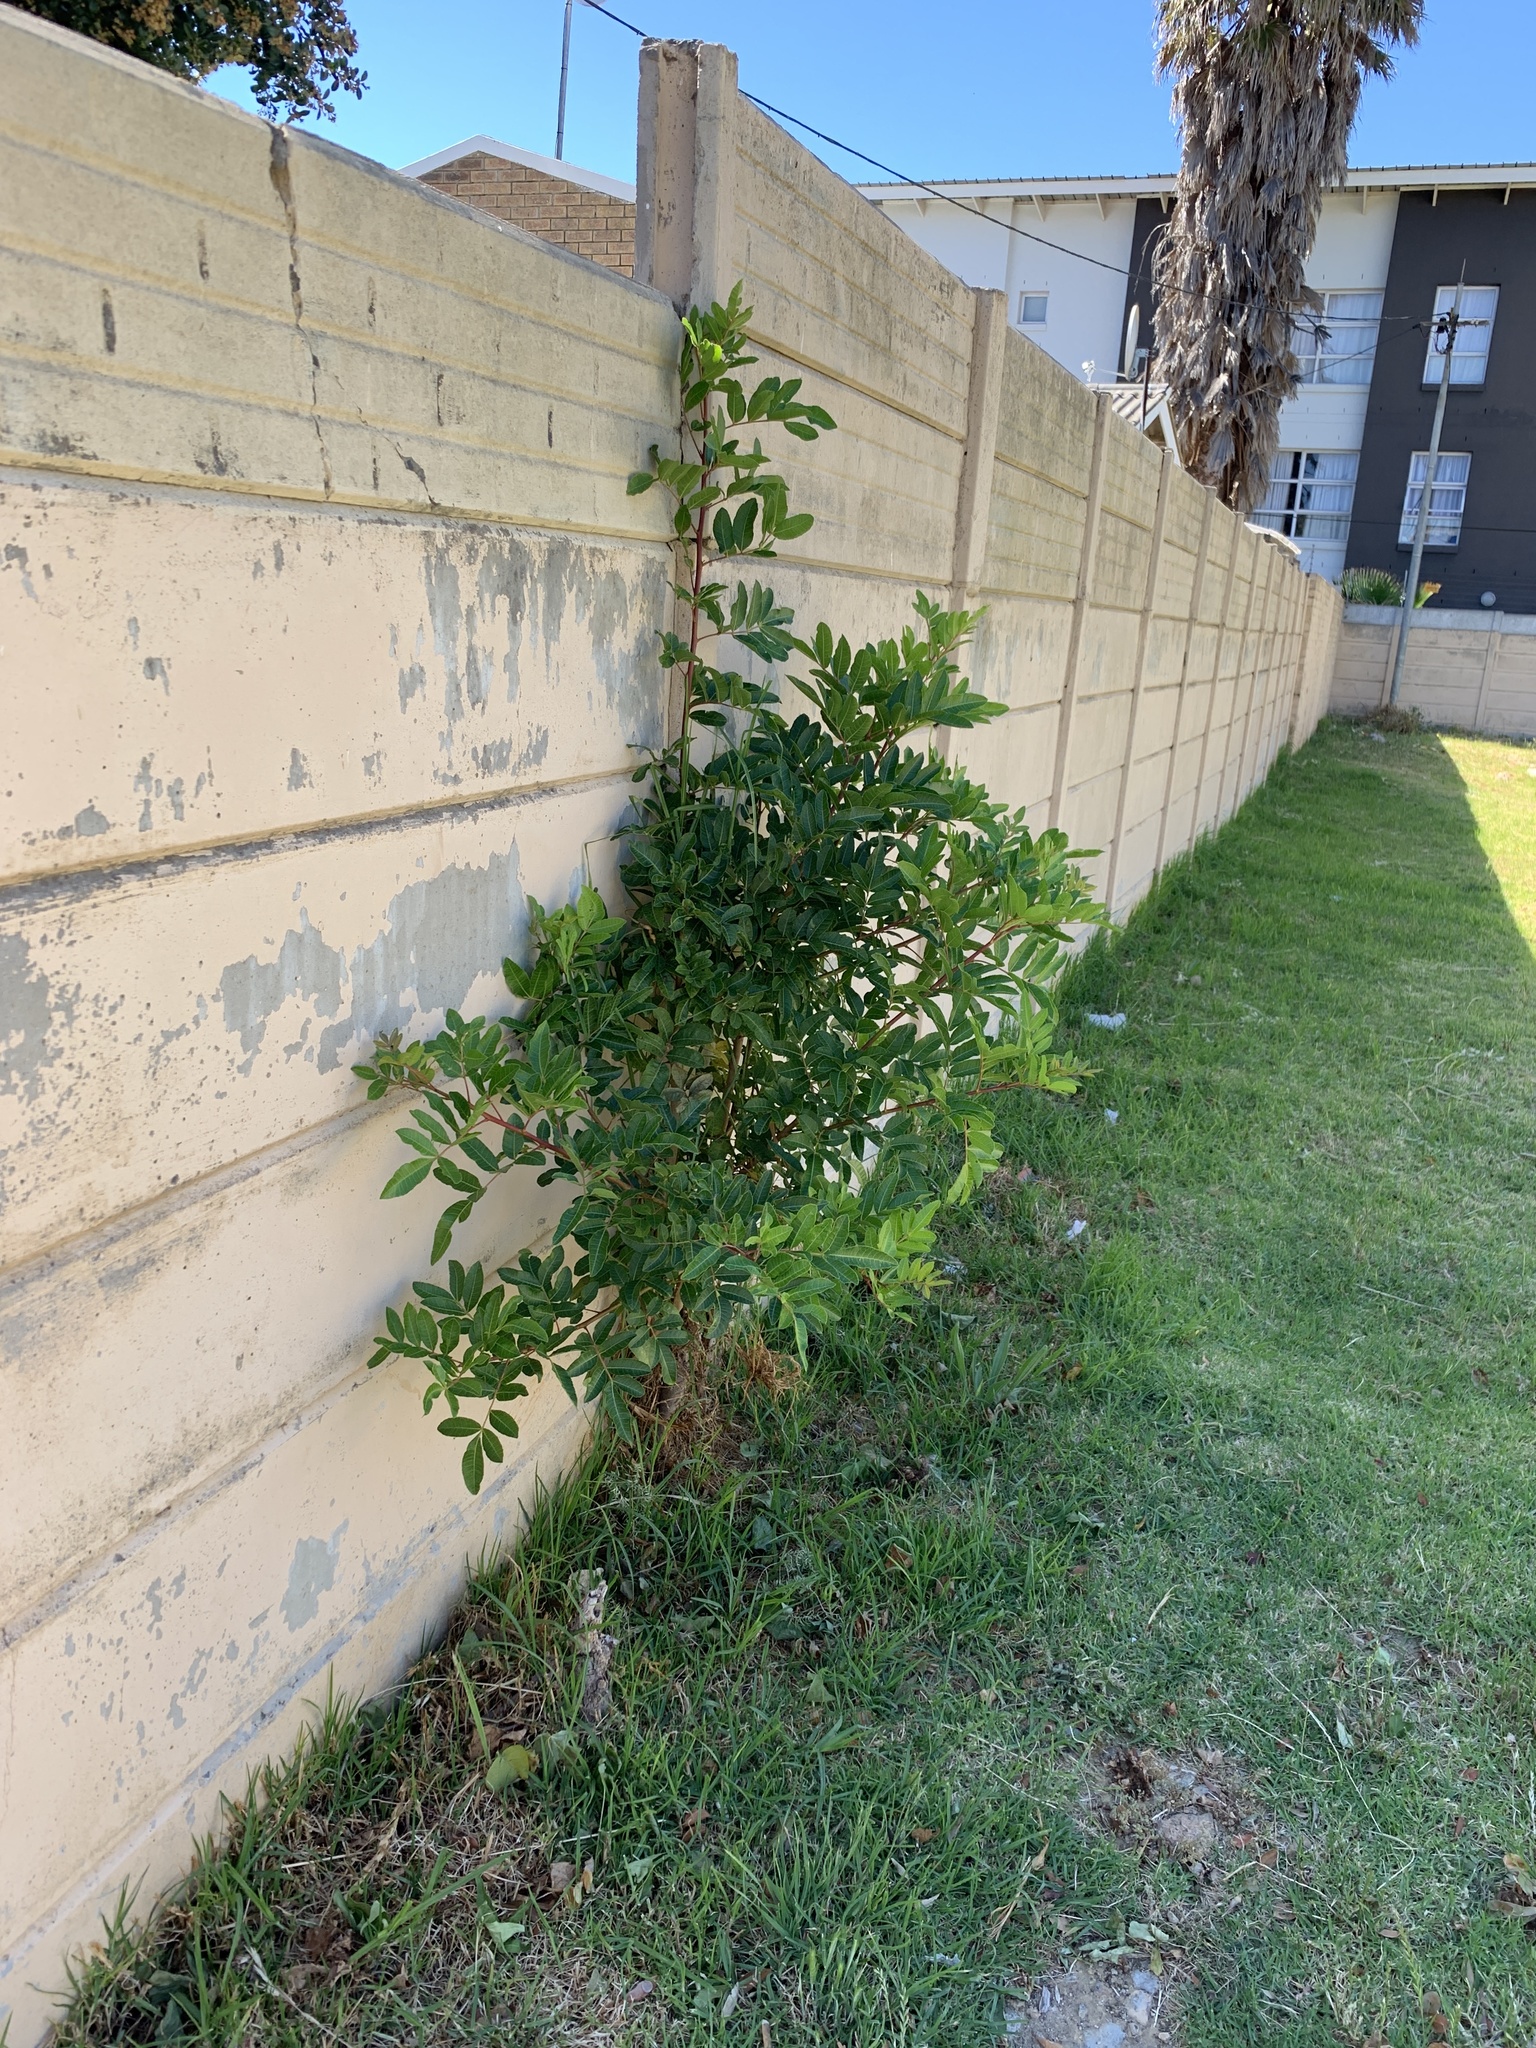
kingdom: Plantae
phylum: Tracheophyta
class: Magnoliopsida
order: Sapindales
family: Anacardiaceae
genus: Schinus
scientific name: Schinus terebinthifolia
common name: Brazilian peppertree
